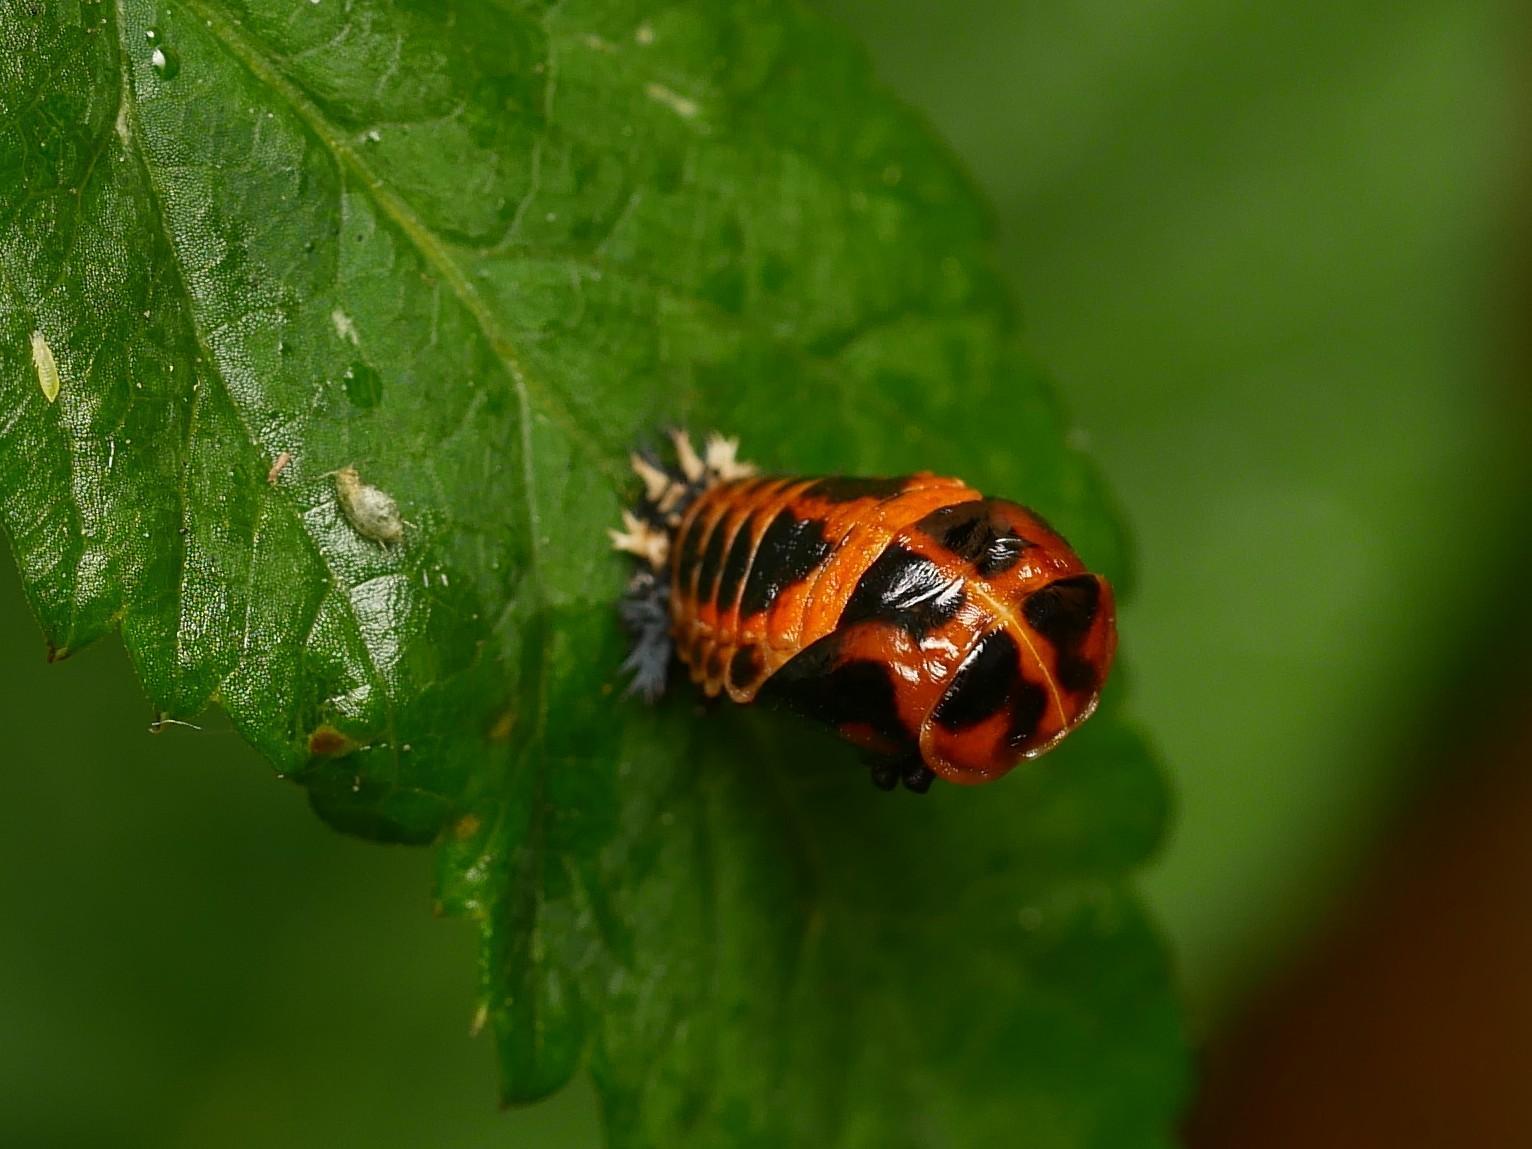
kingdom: Animalia
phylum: Arthropoda
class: Insecta
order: Coleoptera
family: Coccinellidae
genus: Harmonia
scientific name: Harmonia axyridis
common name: Harlequin ladybird
